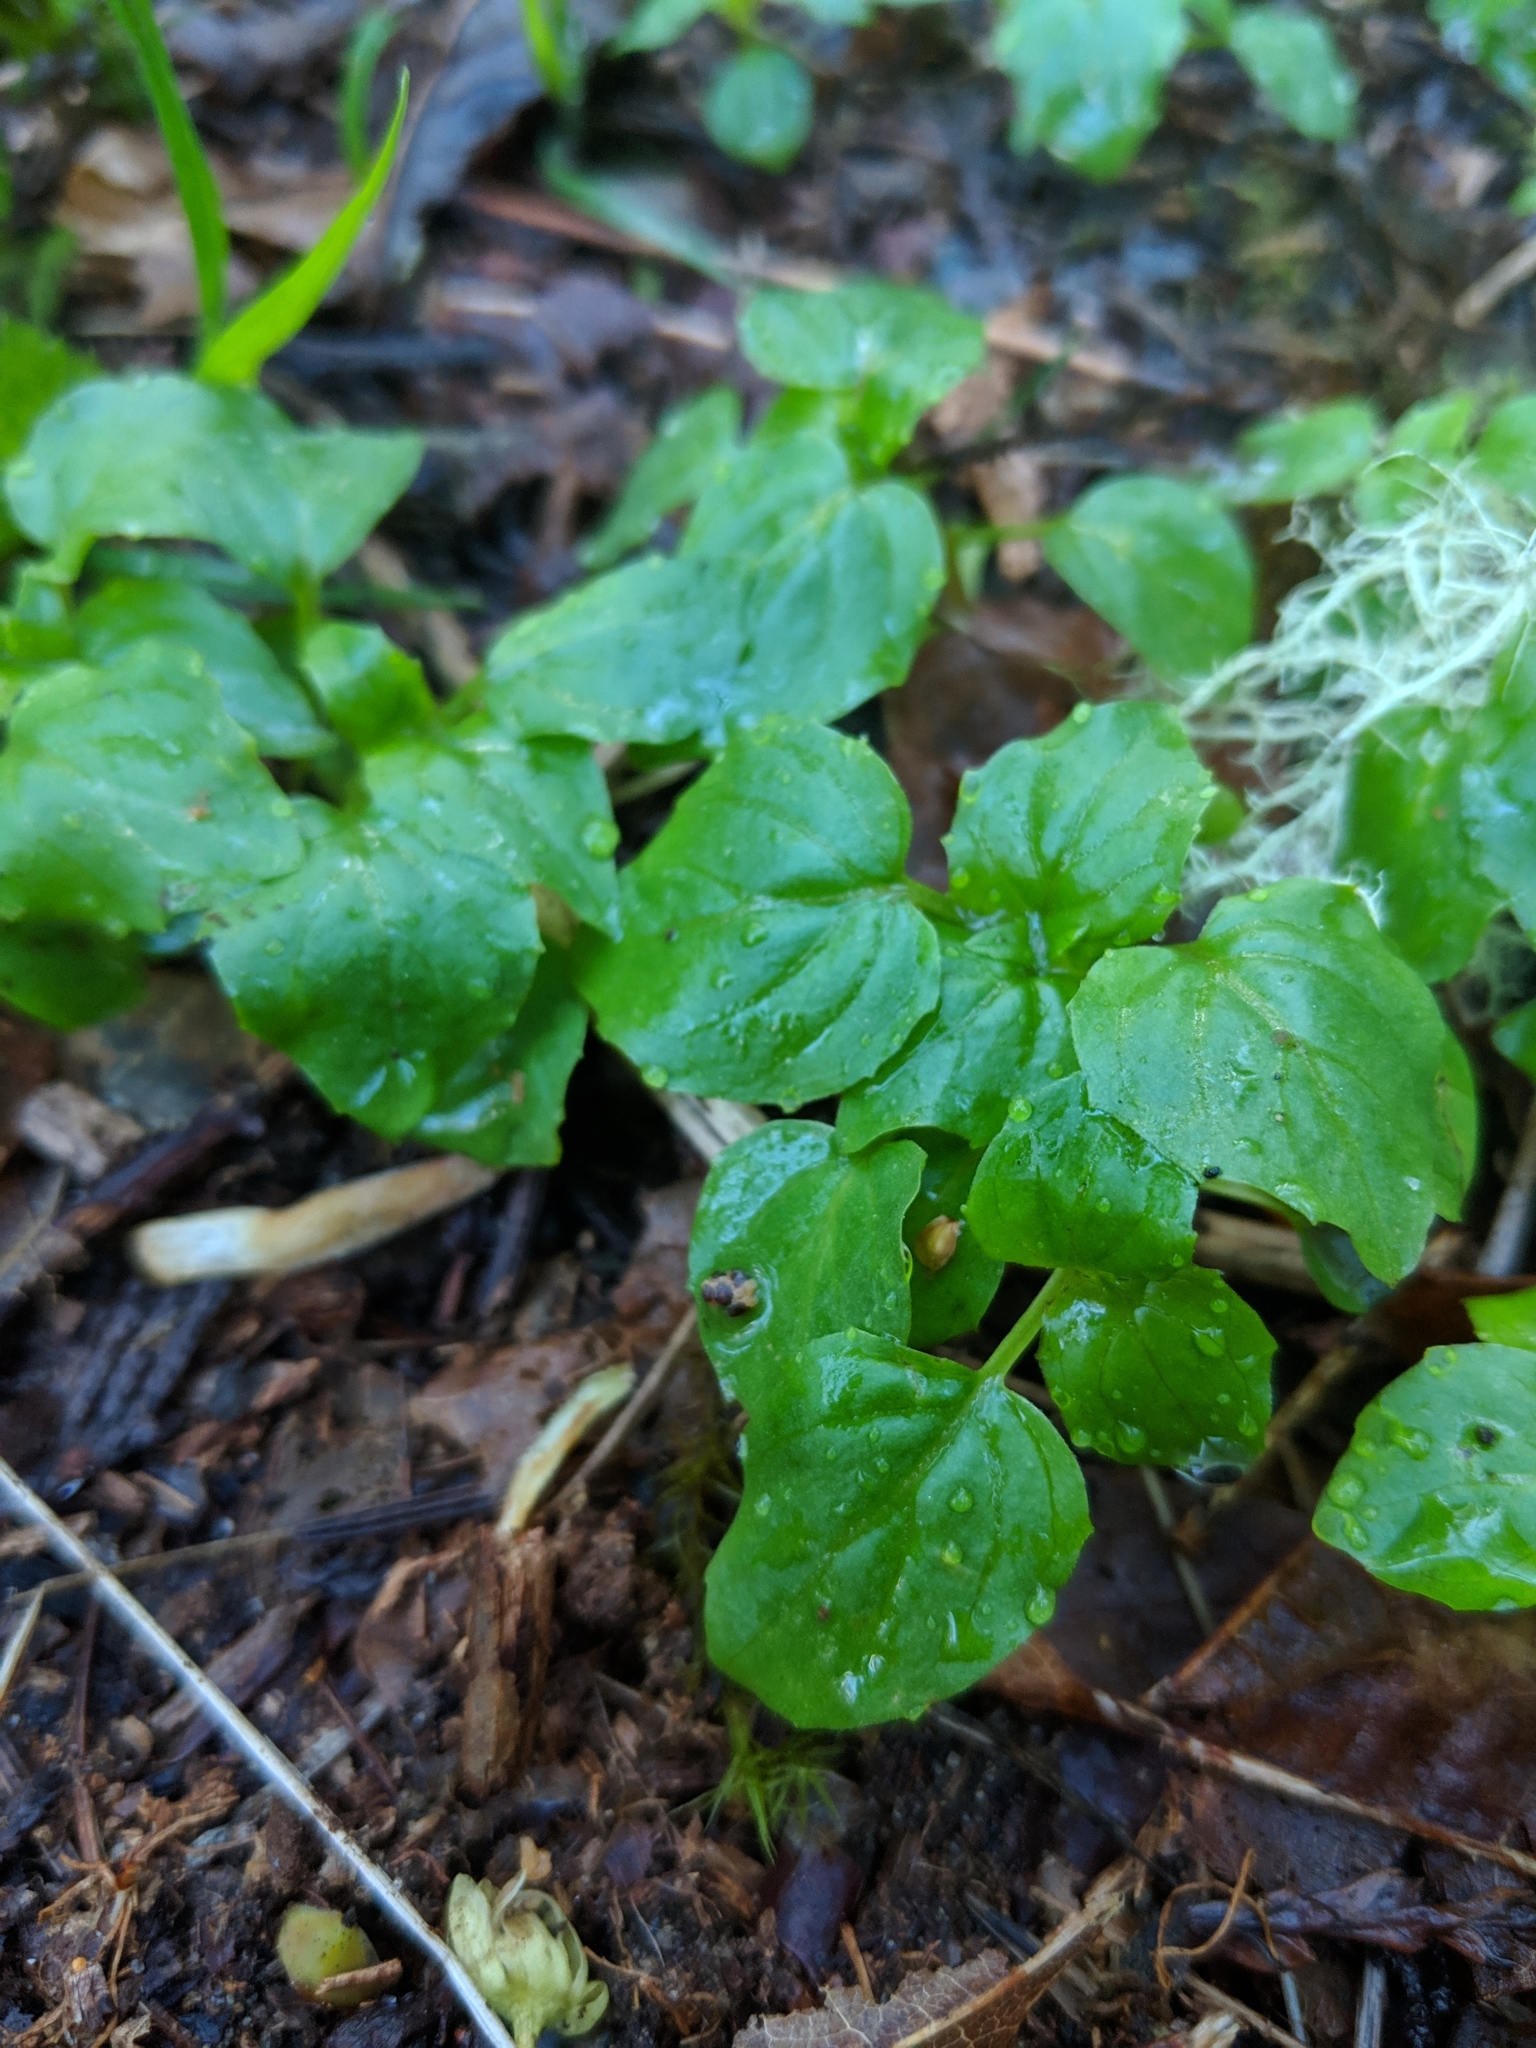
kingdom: Plantae
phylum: Tracheophyta
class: Magnoliopsida
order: Myrtales
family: Onagraceae
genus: Circaea
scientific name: Circaea alpina
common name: Alpine enchanter's-nightshade
